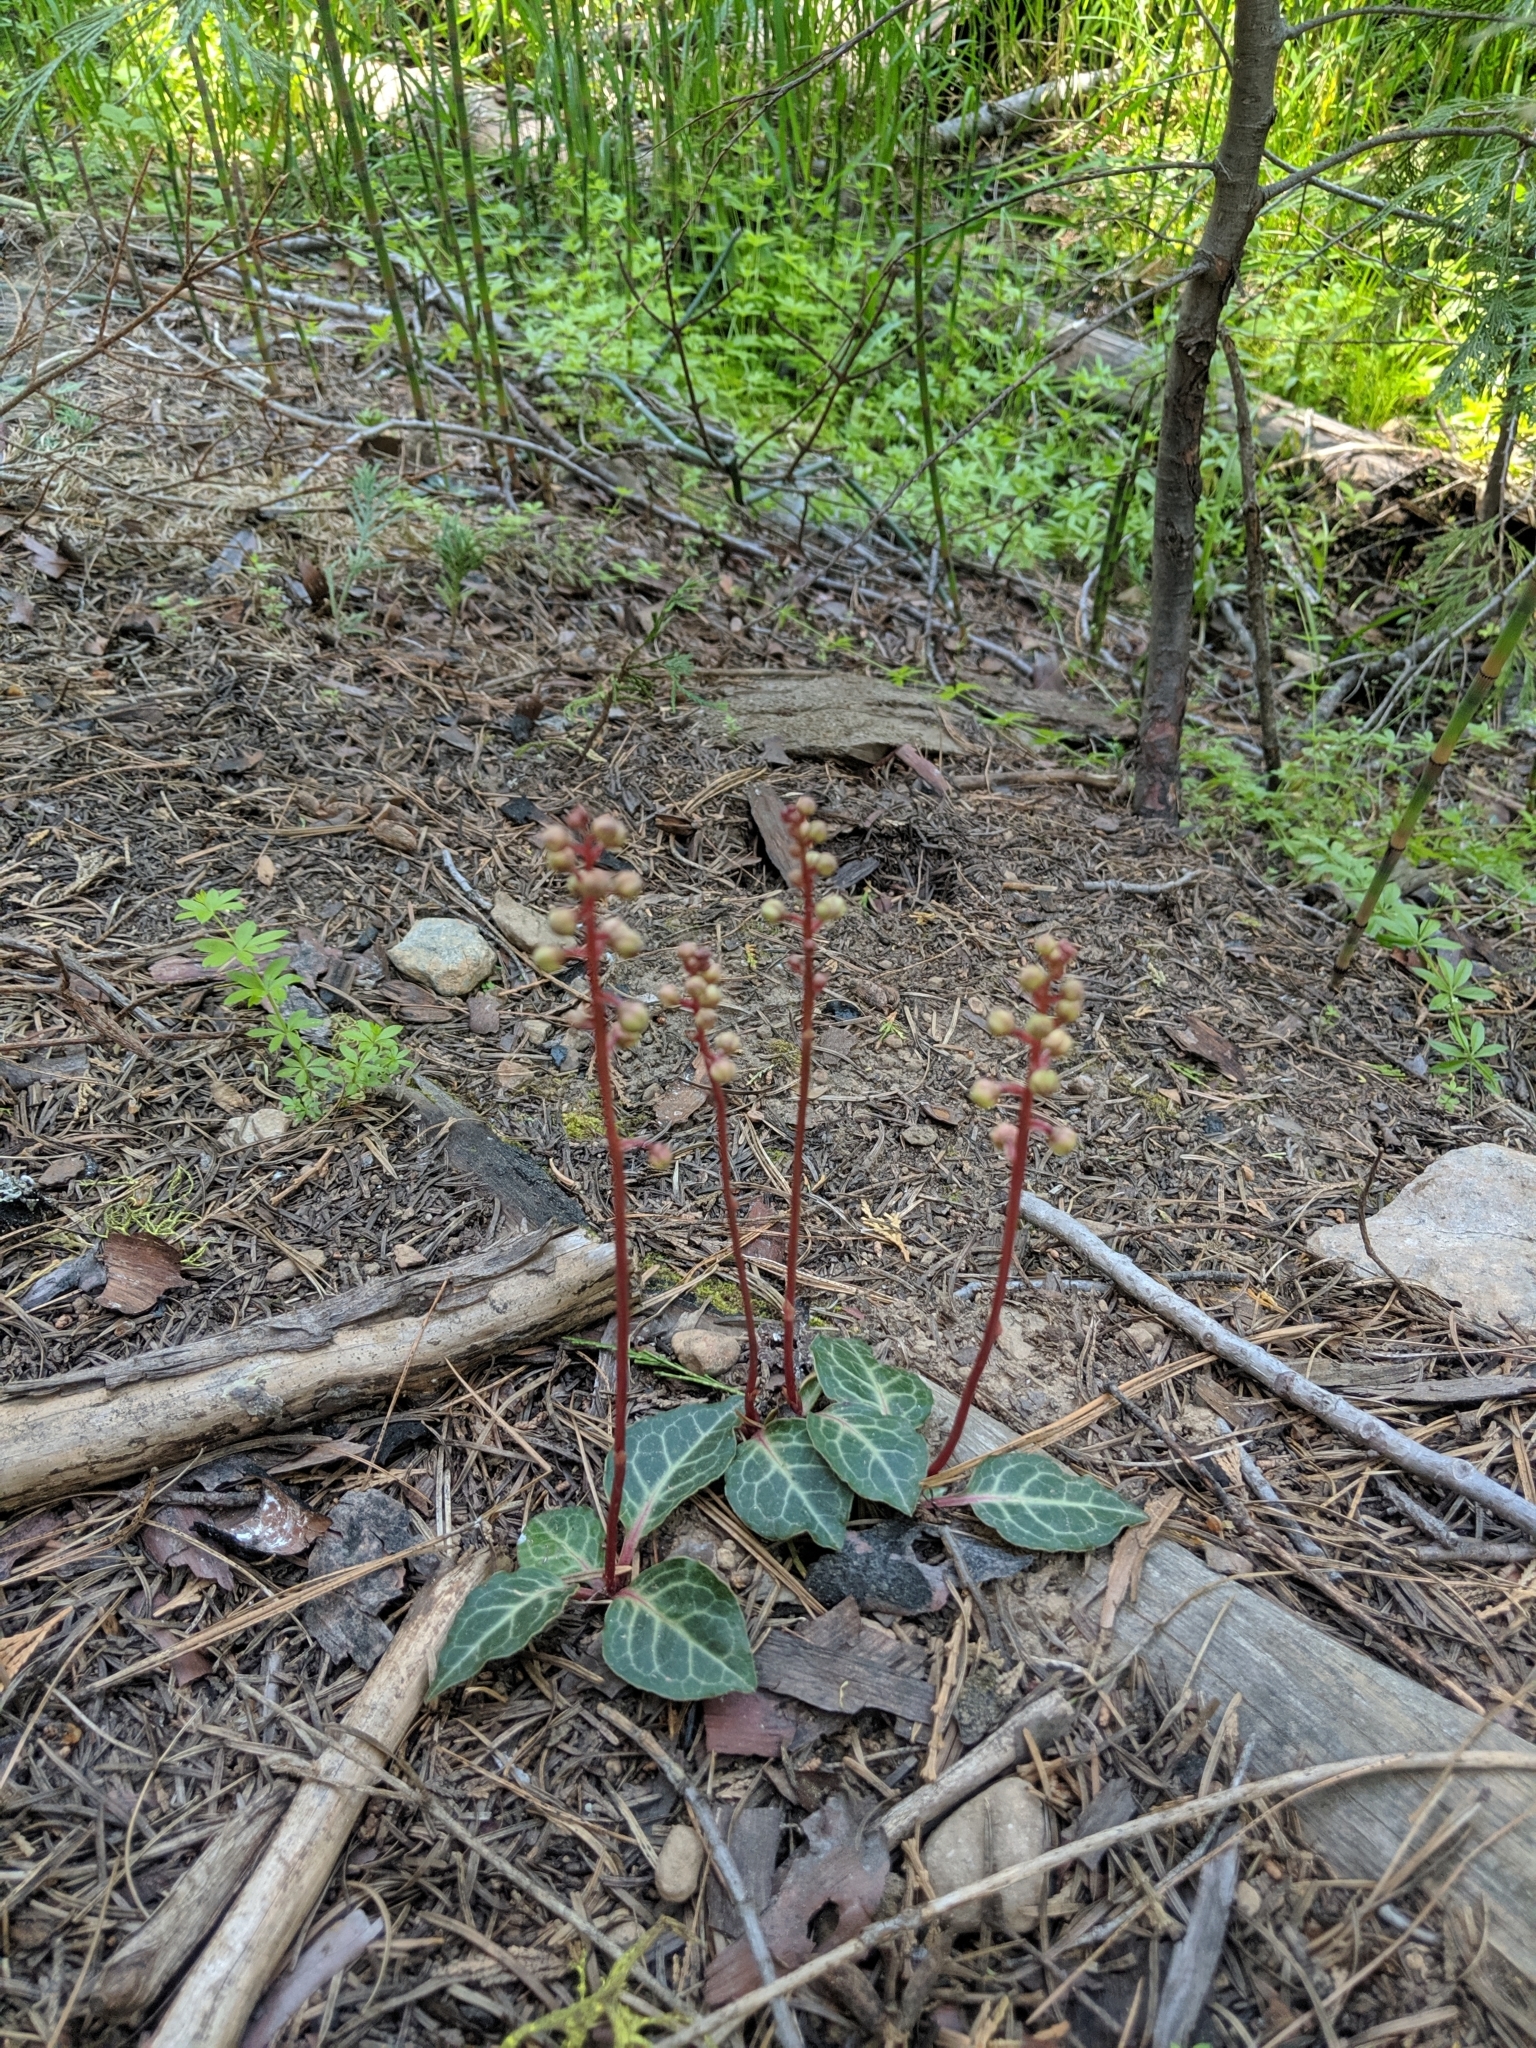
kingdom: Plantae
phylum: Tracheophyta
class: Magnoliopsida
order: Ericales
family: Ericaceae
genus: Pyrola
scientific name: Pyrola picta
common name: White-vein wintergreen
